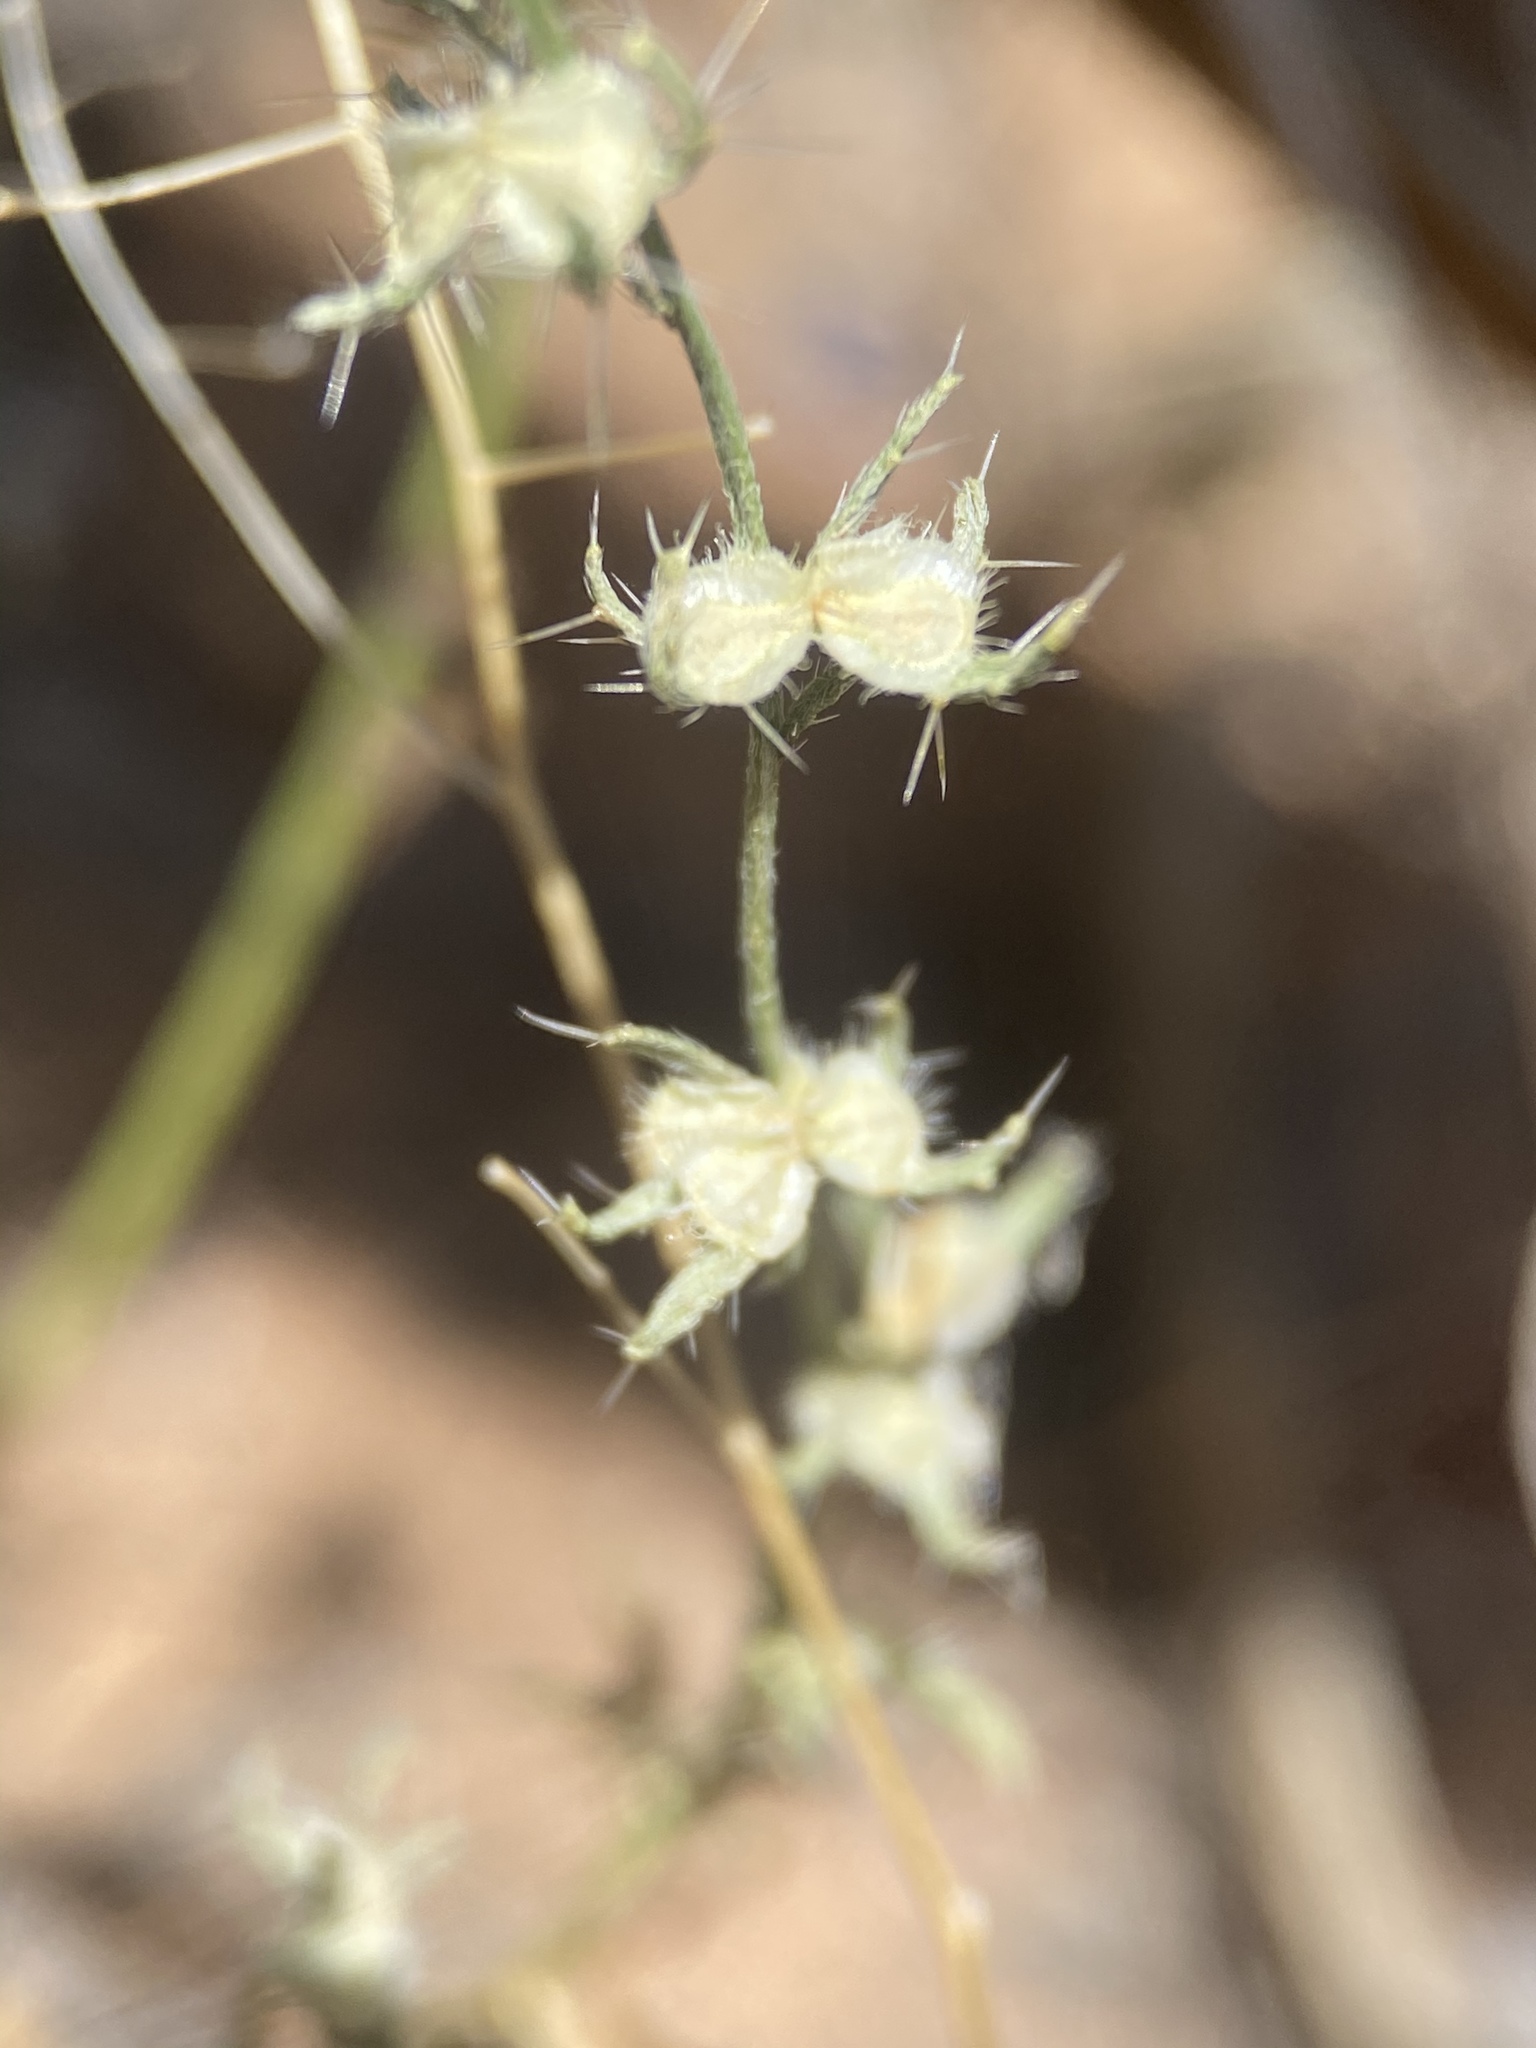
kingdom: Plantae
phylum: Tracheophyta
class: Magnoliopsida
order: Boraginales
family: Boraginaceae
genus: Pectocarya
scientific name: Pectocarya setosa
